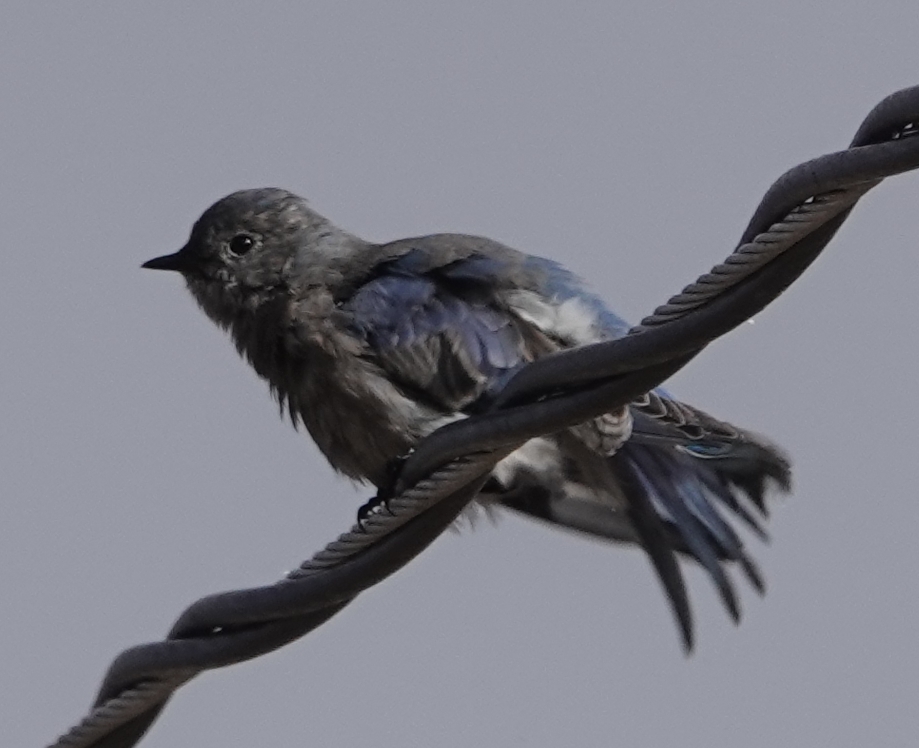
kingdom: Animalia
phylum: Chordata
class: Aves
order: Passeriformes
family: Turdidae
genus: Sialia
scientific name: Sialia currucoides
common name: Mountain bluebird
